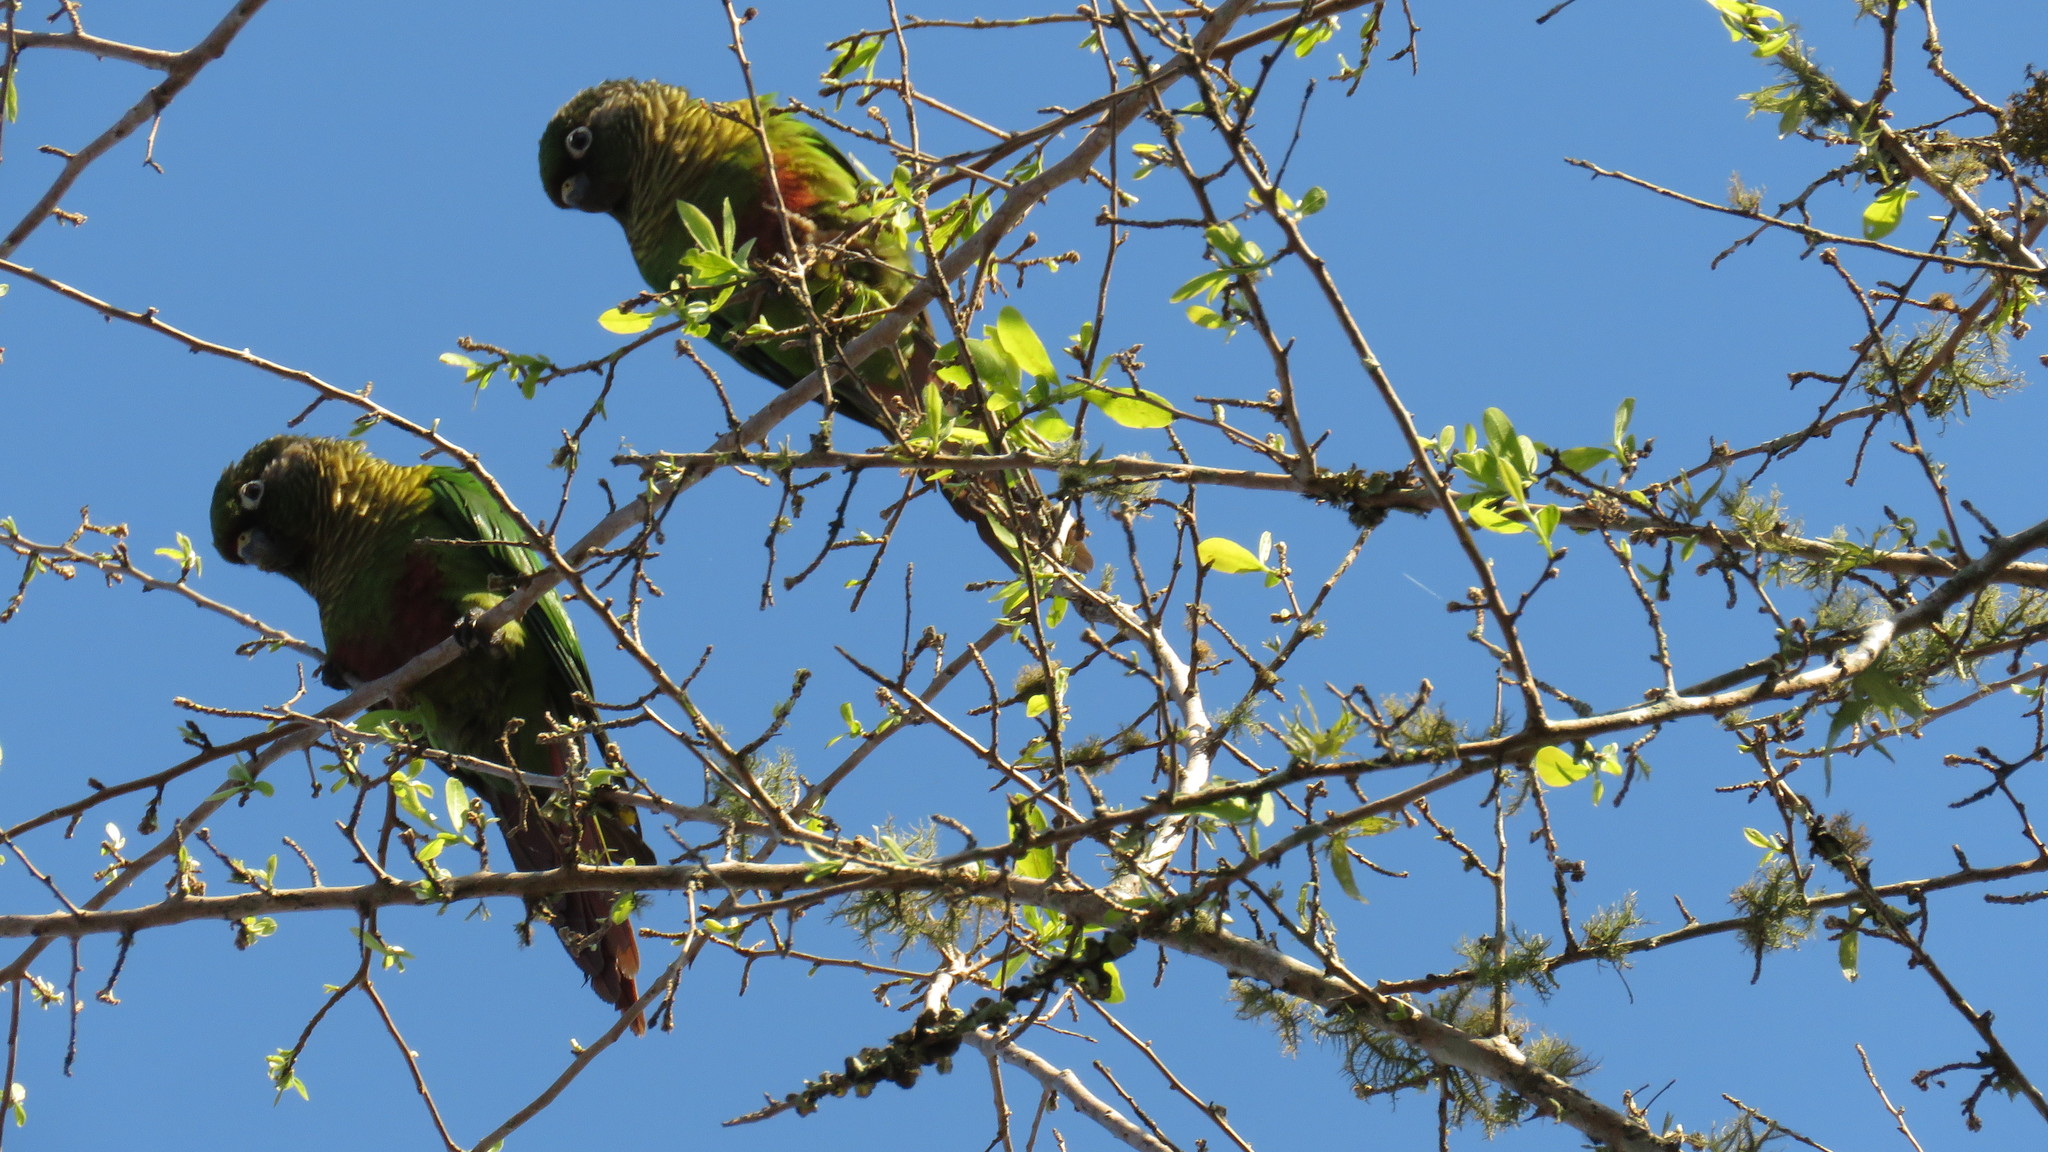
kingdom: Animalia
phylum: Chordata
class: Aves
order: Psittaciformes
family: Psittacidae
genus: Pyrrhura
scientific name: Pyrrhura frontalis
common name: Maroon-bellied parakeet
